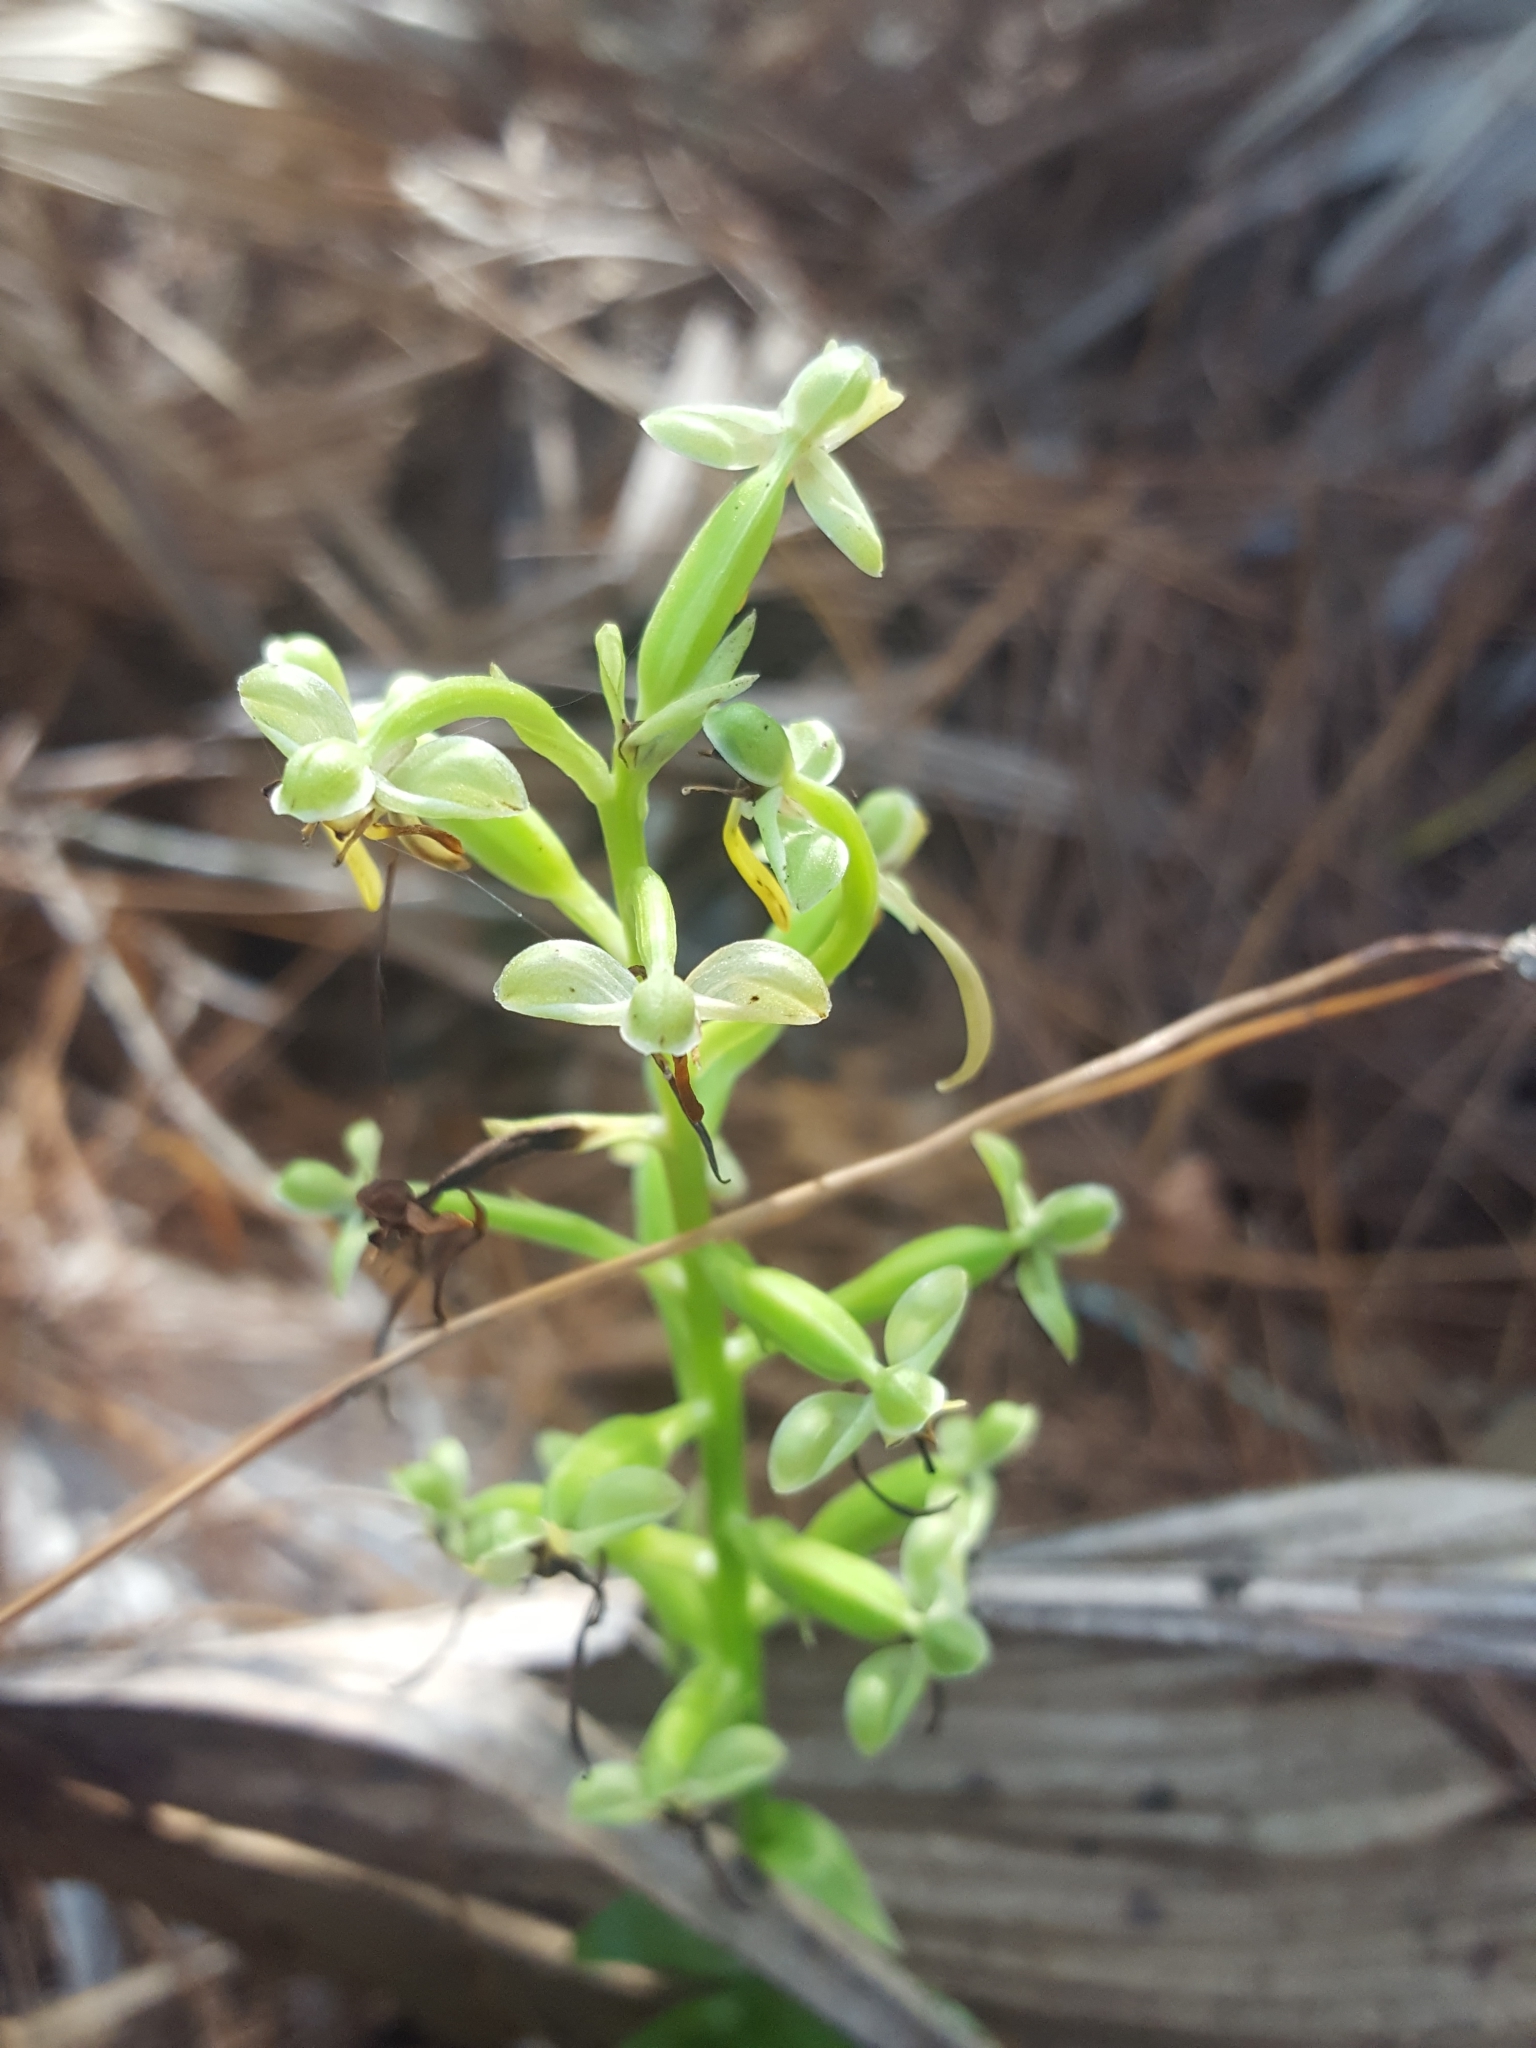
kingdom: Plantae
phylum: Tracheophyta
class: Liliopsida
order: Asparagales
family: Orchidaceae
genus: Habenaria
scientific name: Habenaria floribunda
